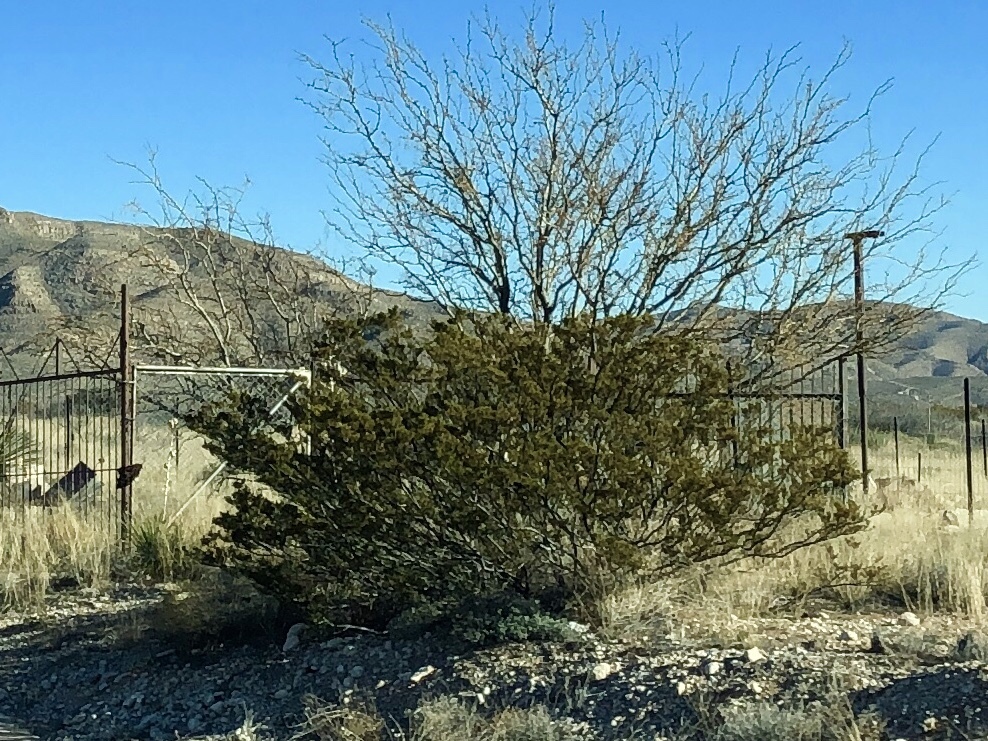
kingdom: Plantae
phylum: Tracheophyta
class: Magnoliopsida
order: Zygophyllales
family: Zygophyllaceae
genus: Larrea
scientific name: Larrea tridentata
